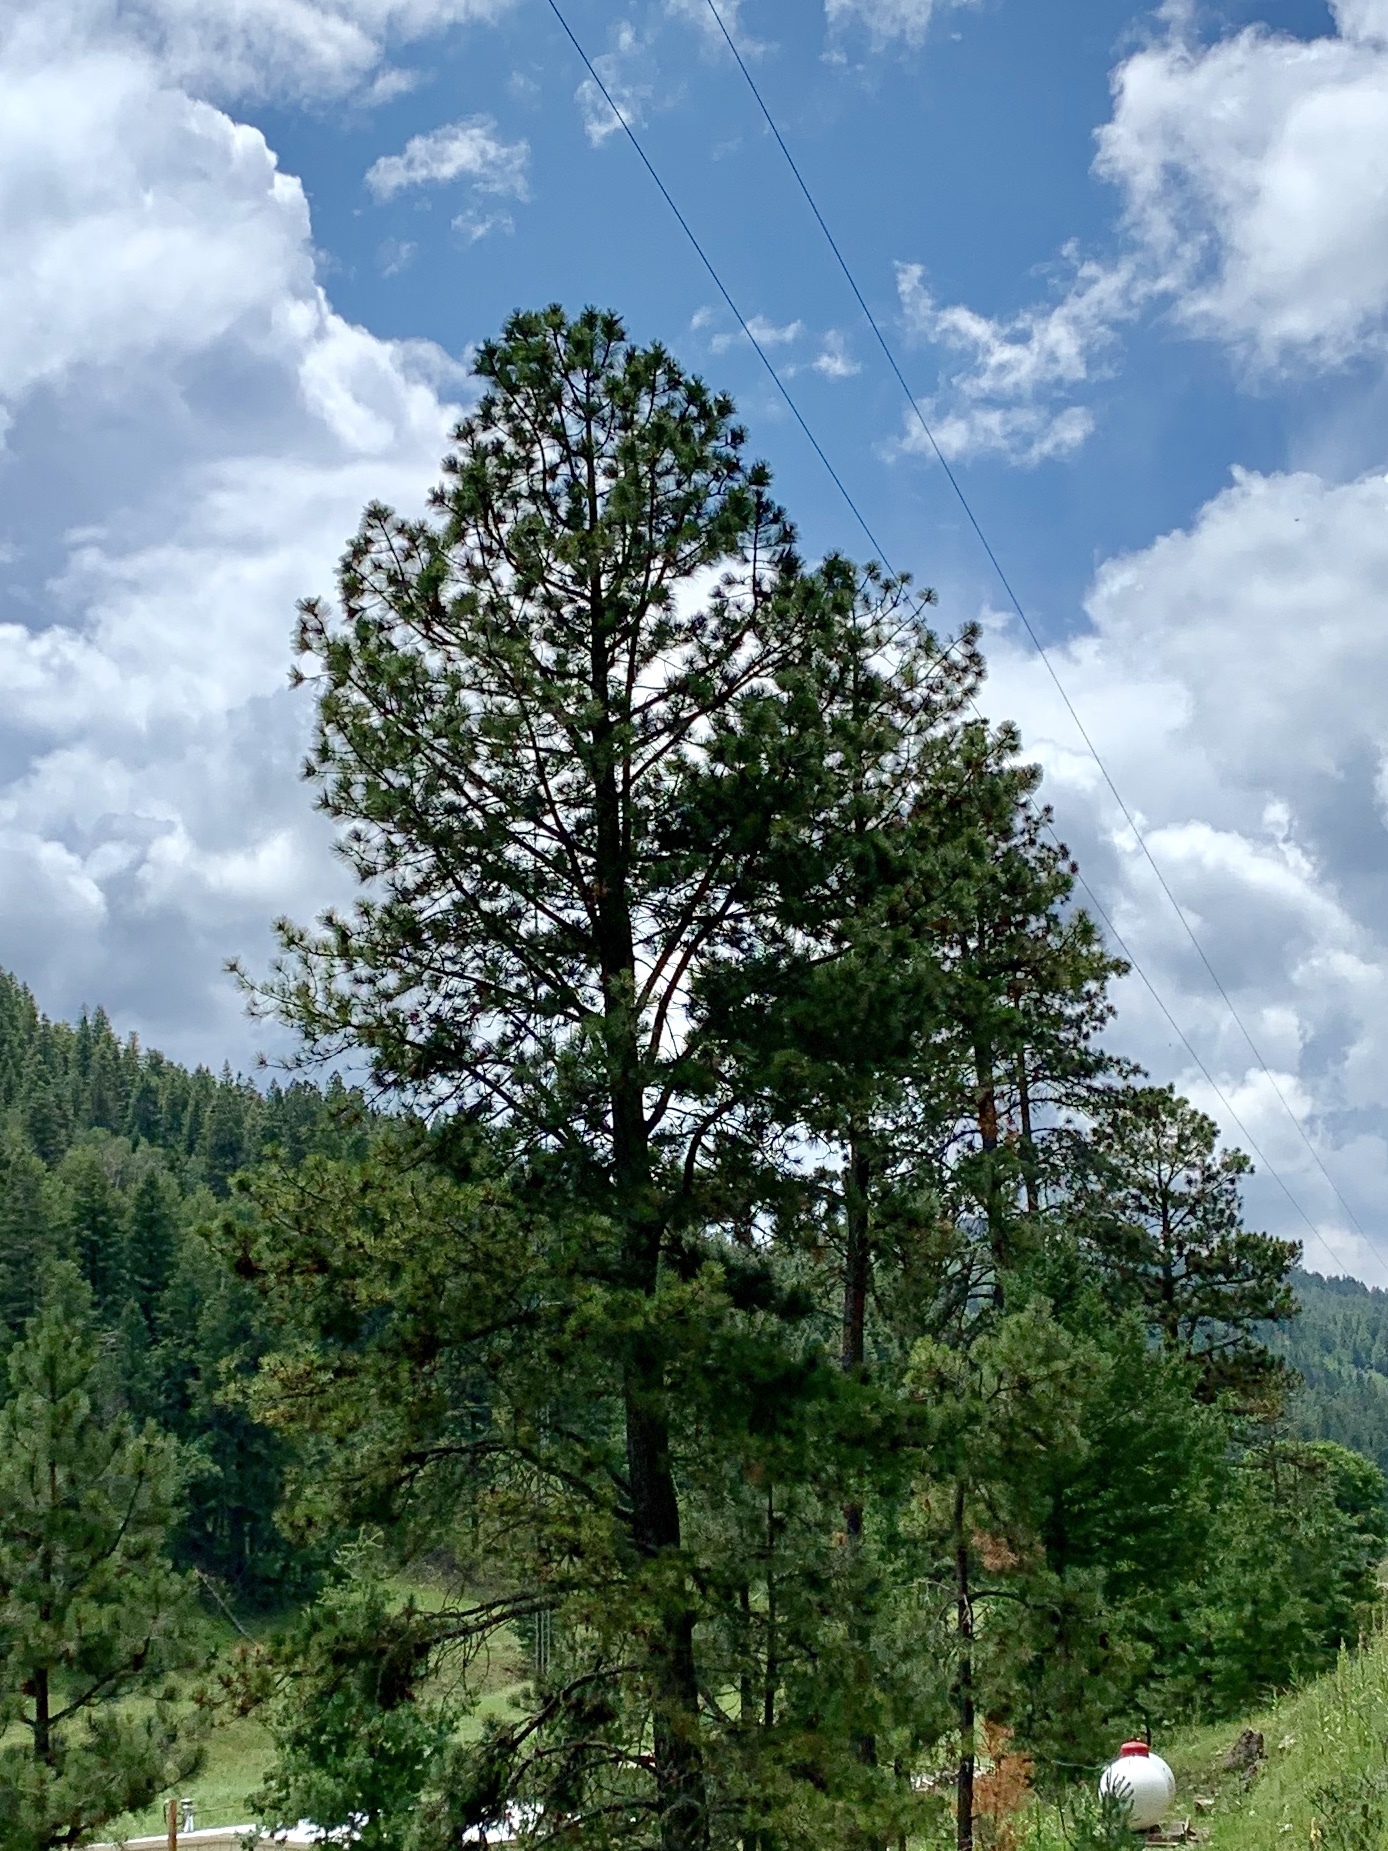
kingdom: Plantae
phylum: Tracheophyta
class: Pinopsida
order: Pinales
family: Pinaceae
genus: Pinus
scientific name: Pinus ponderosa
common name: Western yellow-pine
